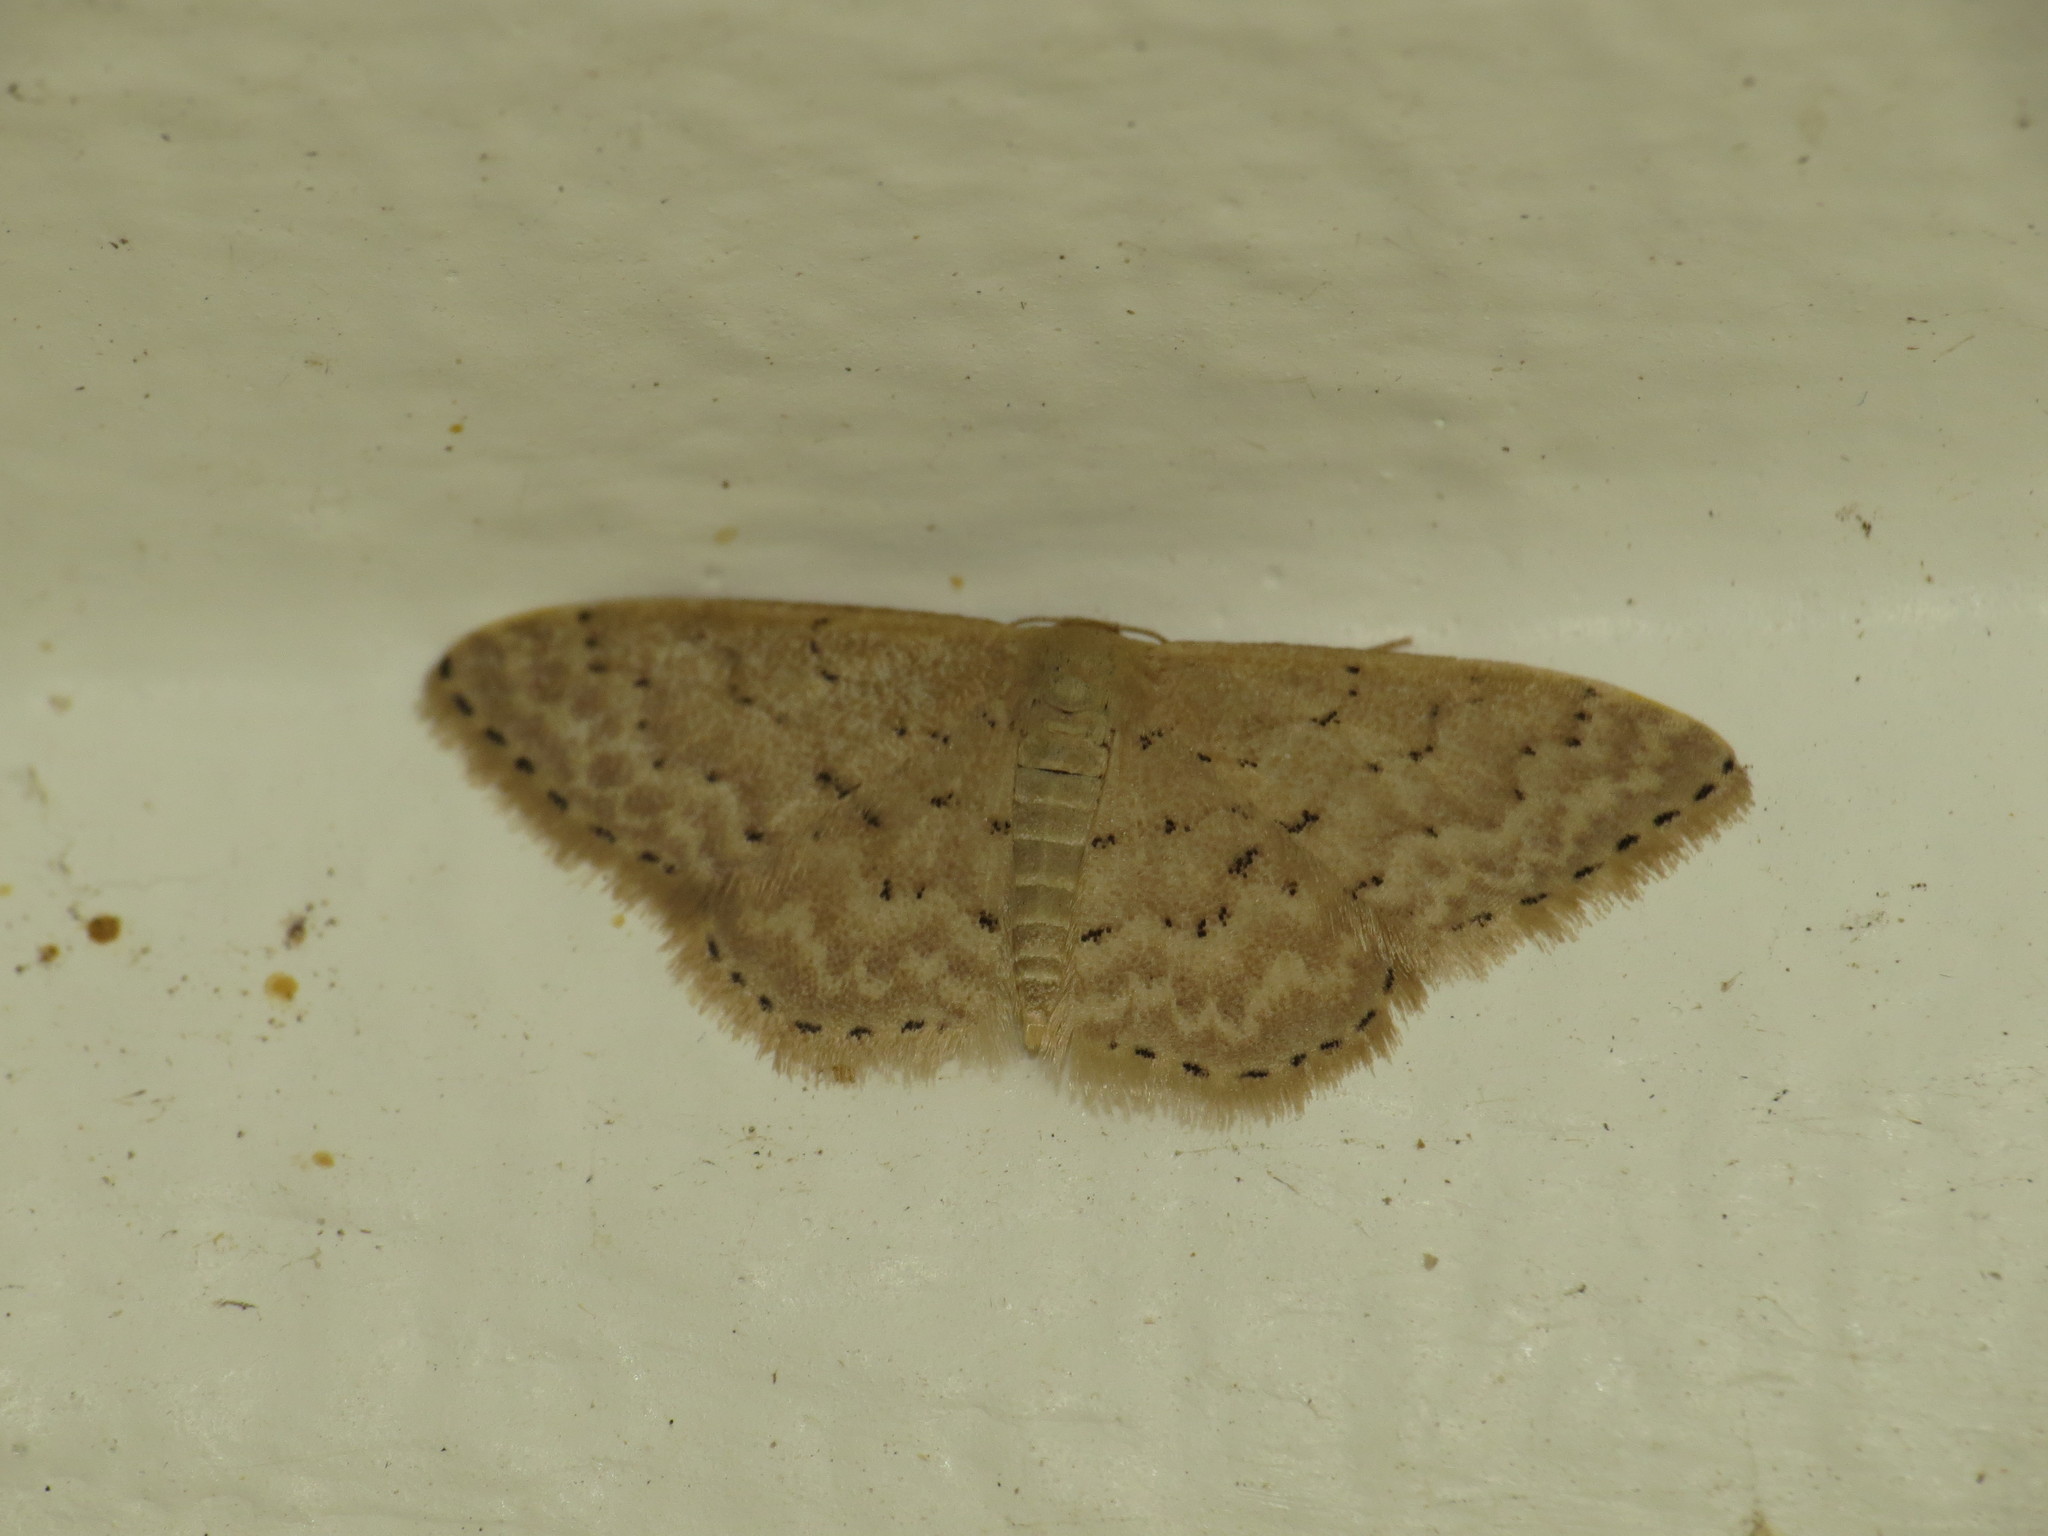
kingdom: Animalia
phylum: Arthropoda
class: Insecta
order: Lepidoptera
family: Geometridae
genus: Idaea
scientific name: Idaea philocosma
